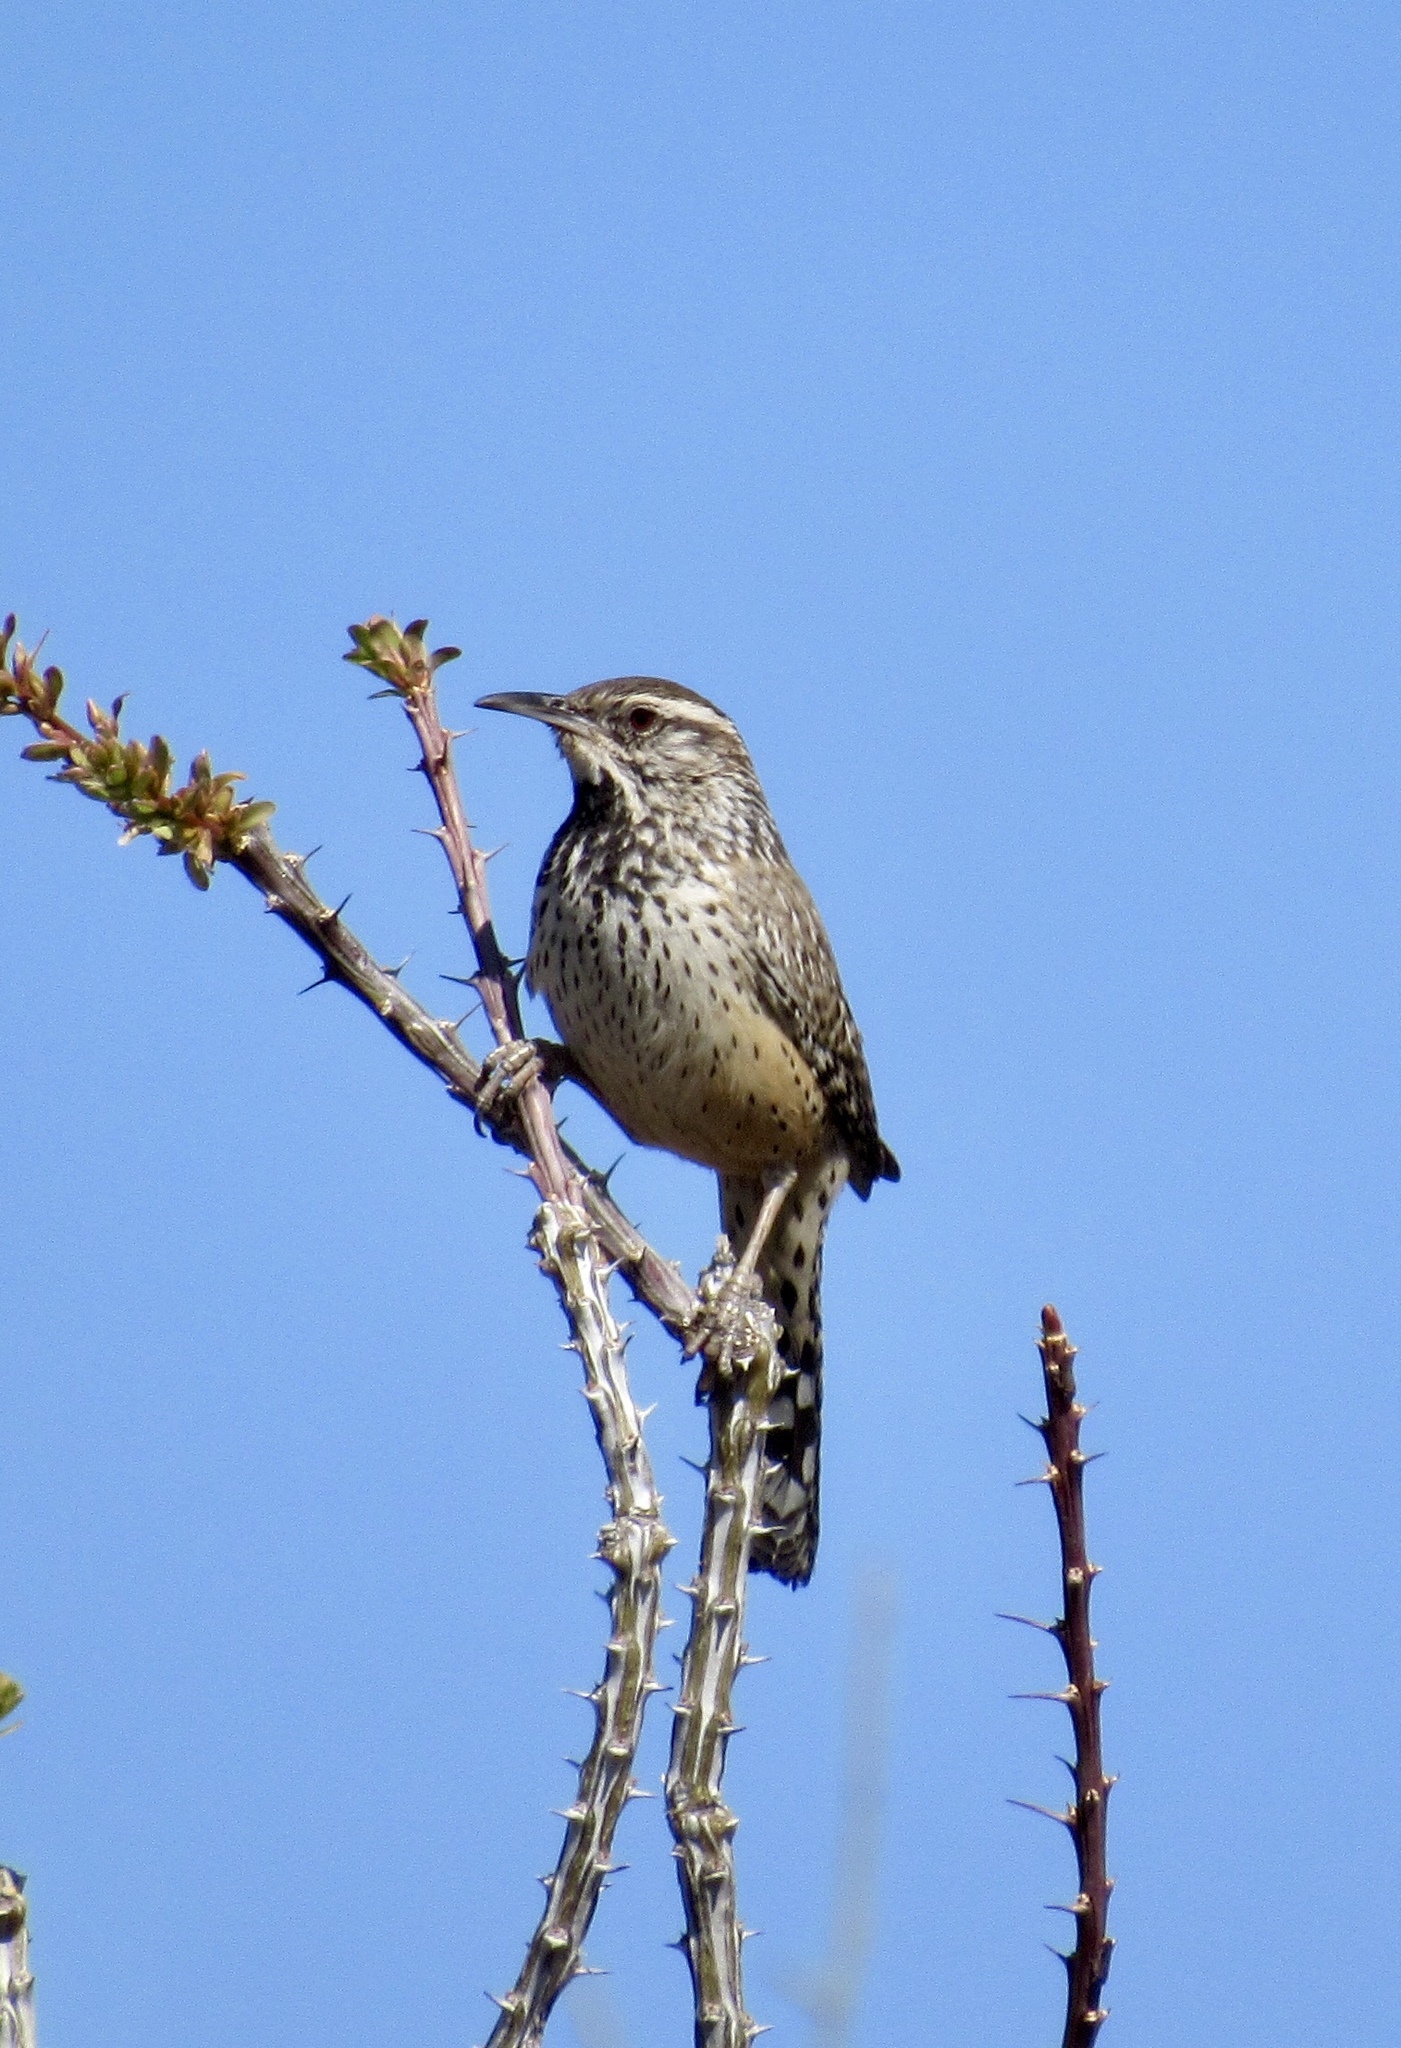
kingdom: Animalia
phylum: Chordata
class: Aves
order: Passeriformes
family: Troglodytidae
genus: Campylorhynchus
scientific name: Campylorhynchus brunneicapillus
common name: Cactus wren
